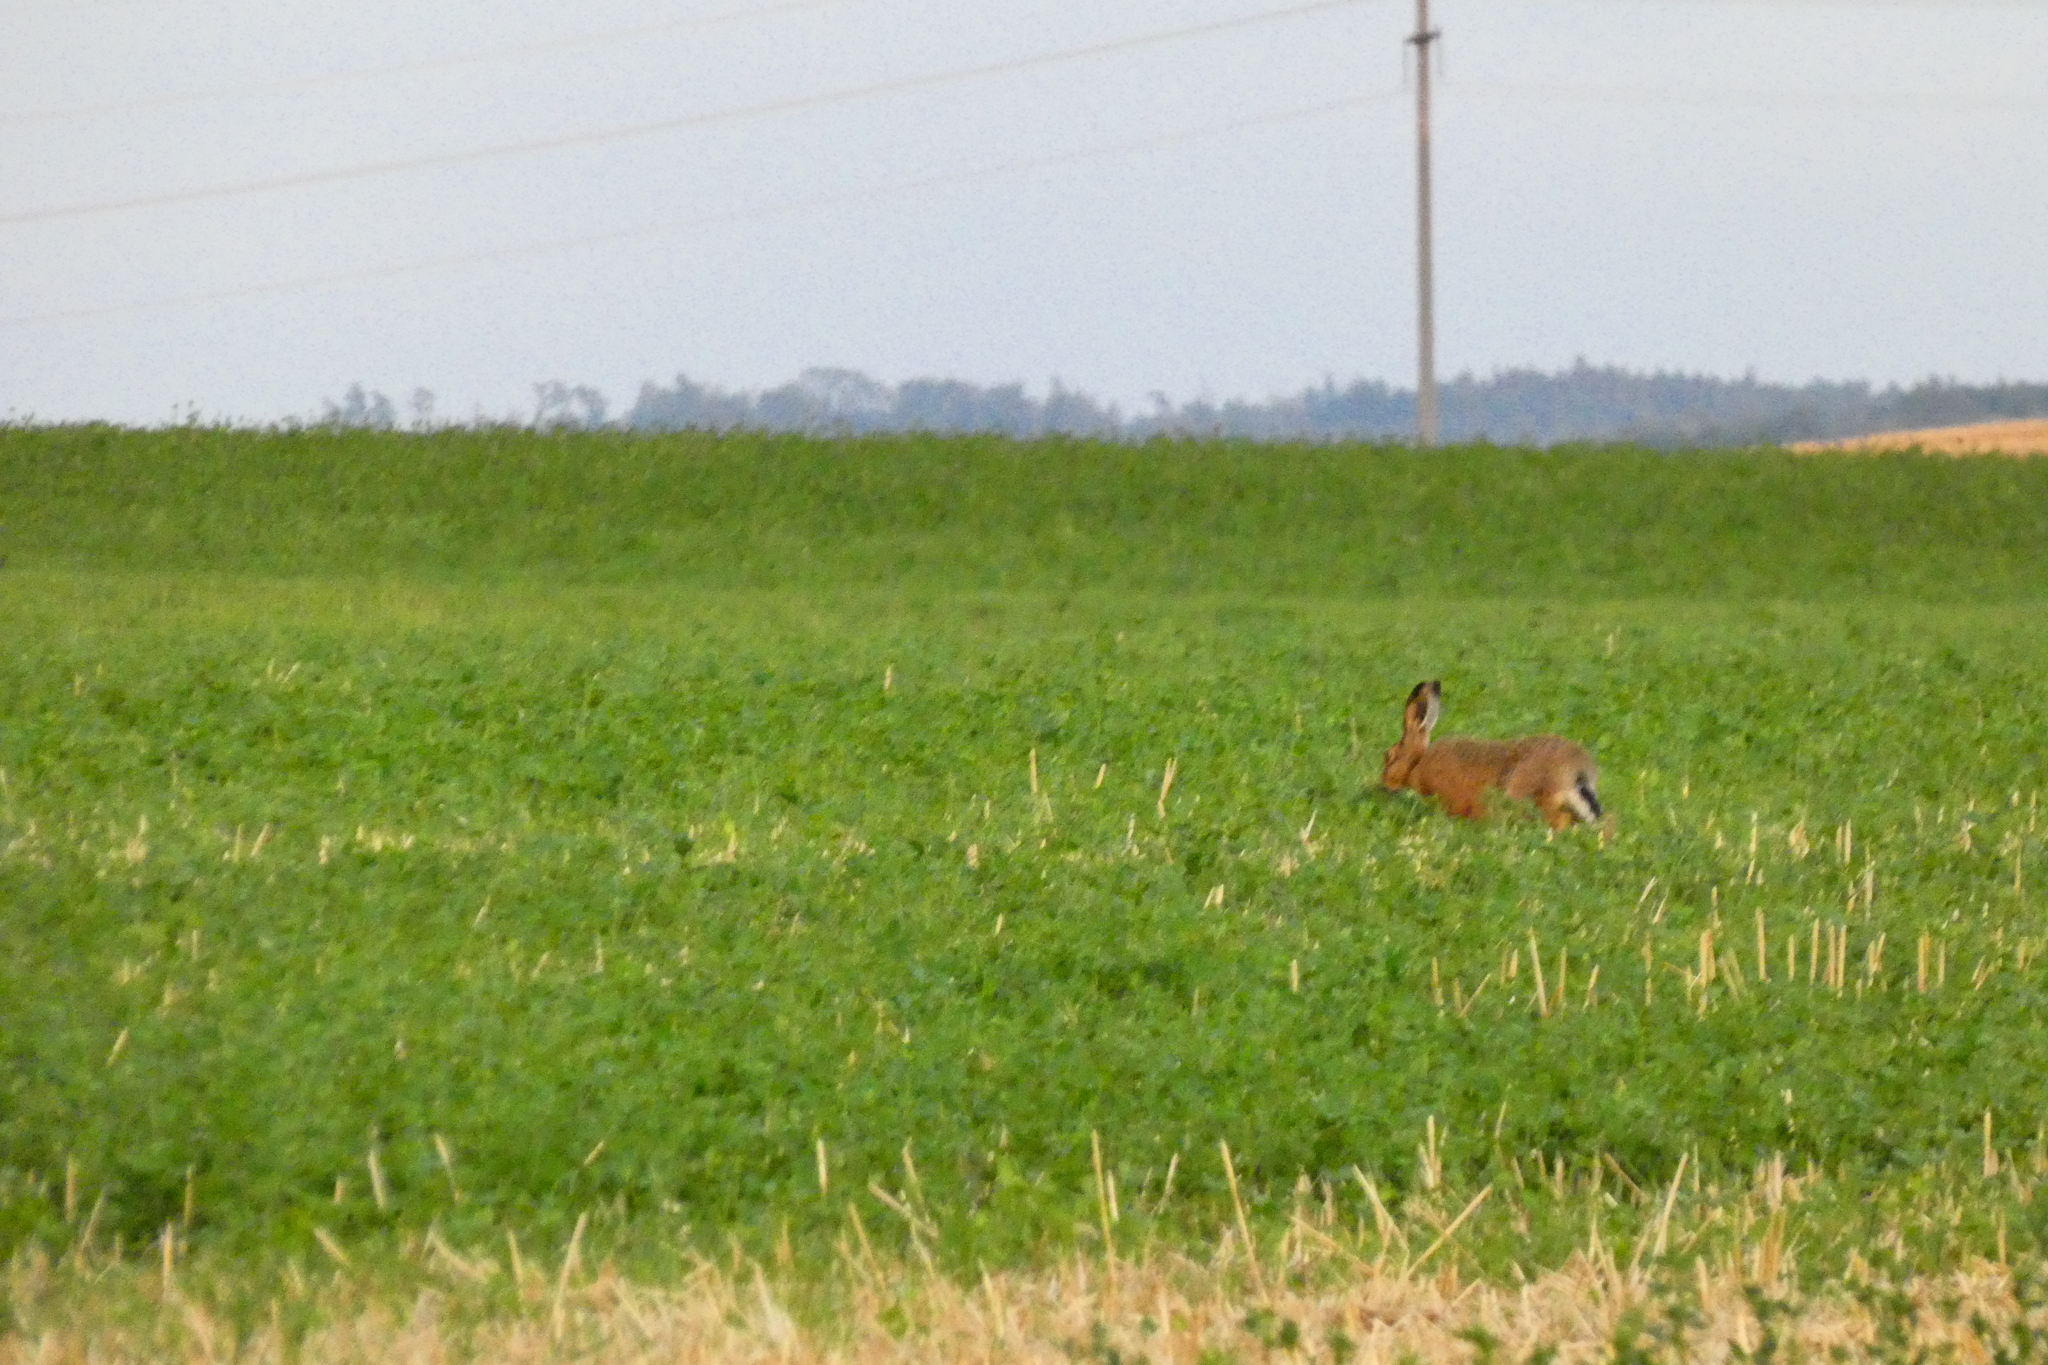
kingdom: Animalia
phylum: Chordata
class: Mammalia
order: Lagomorpha
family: Leporidae
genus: Lepus
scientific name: Lepus europaeus
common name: European hare
